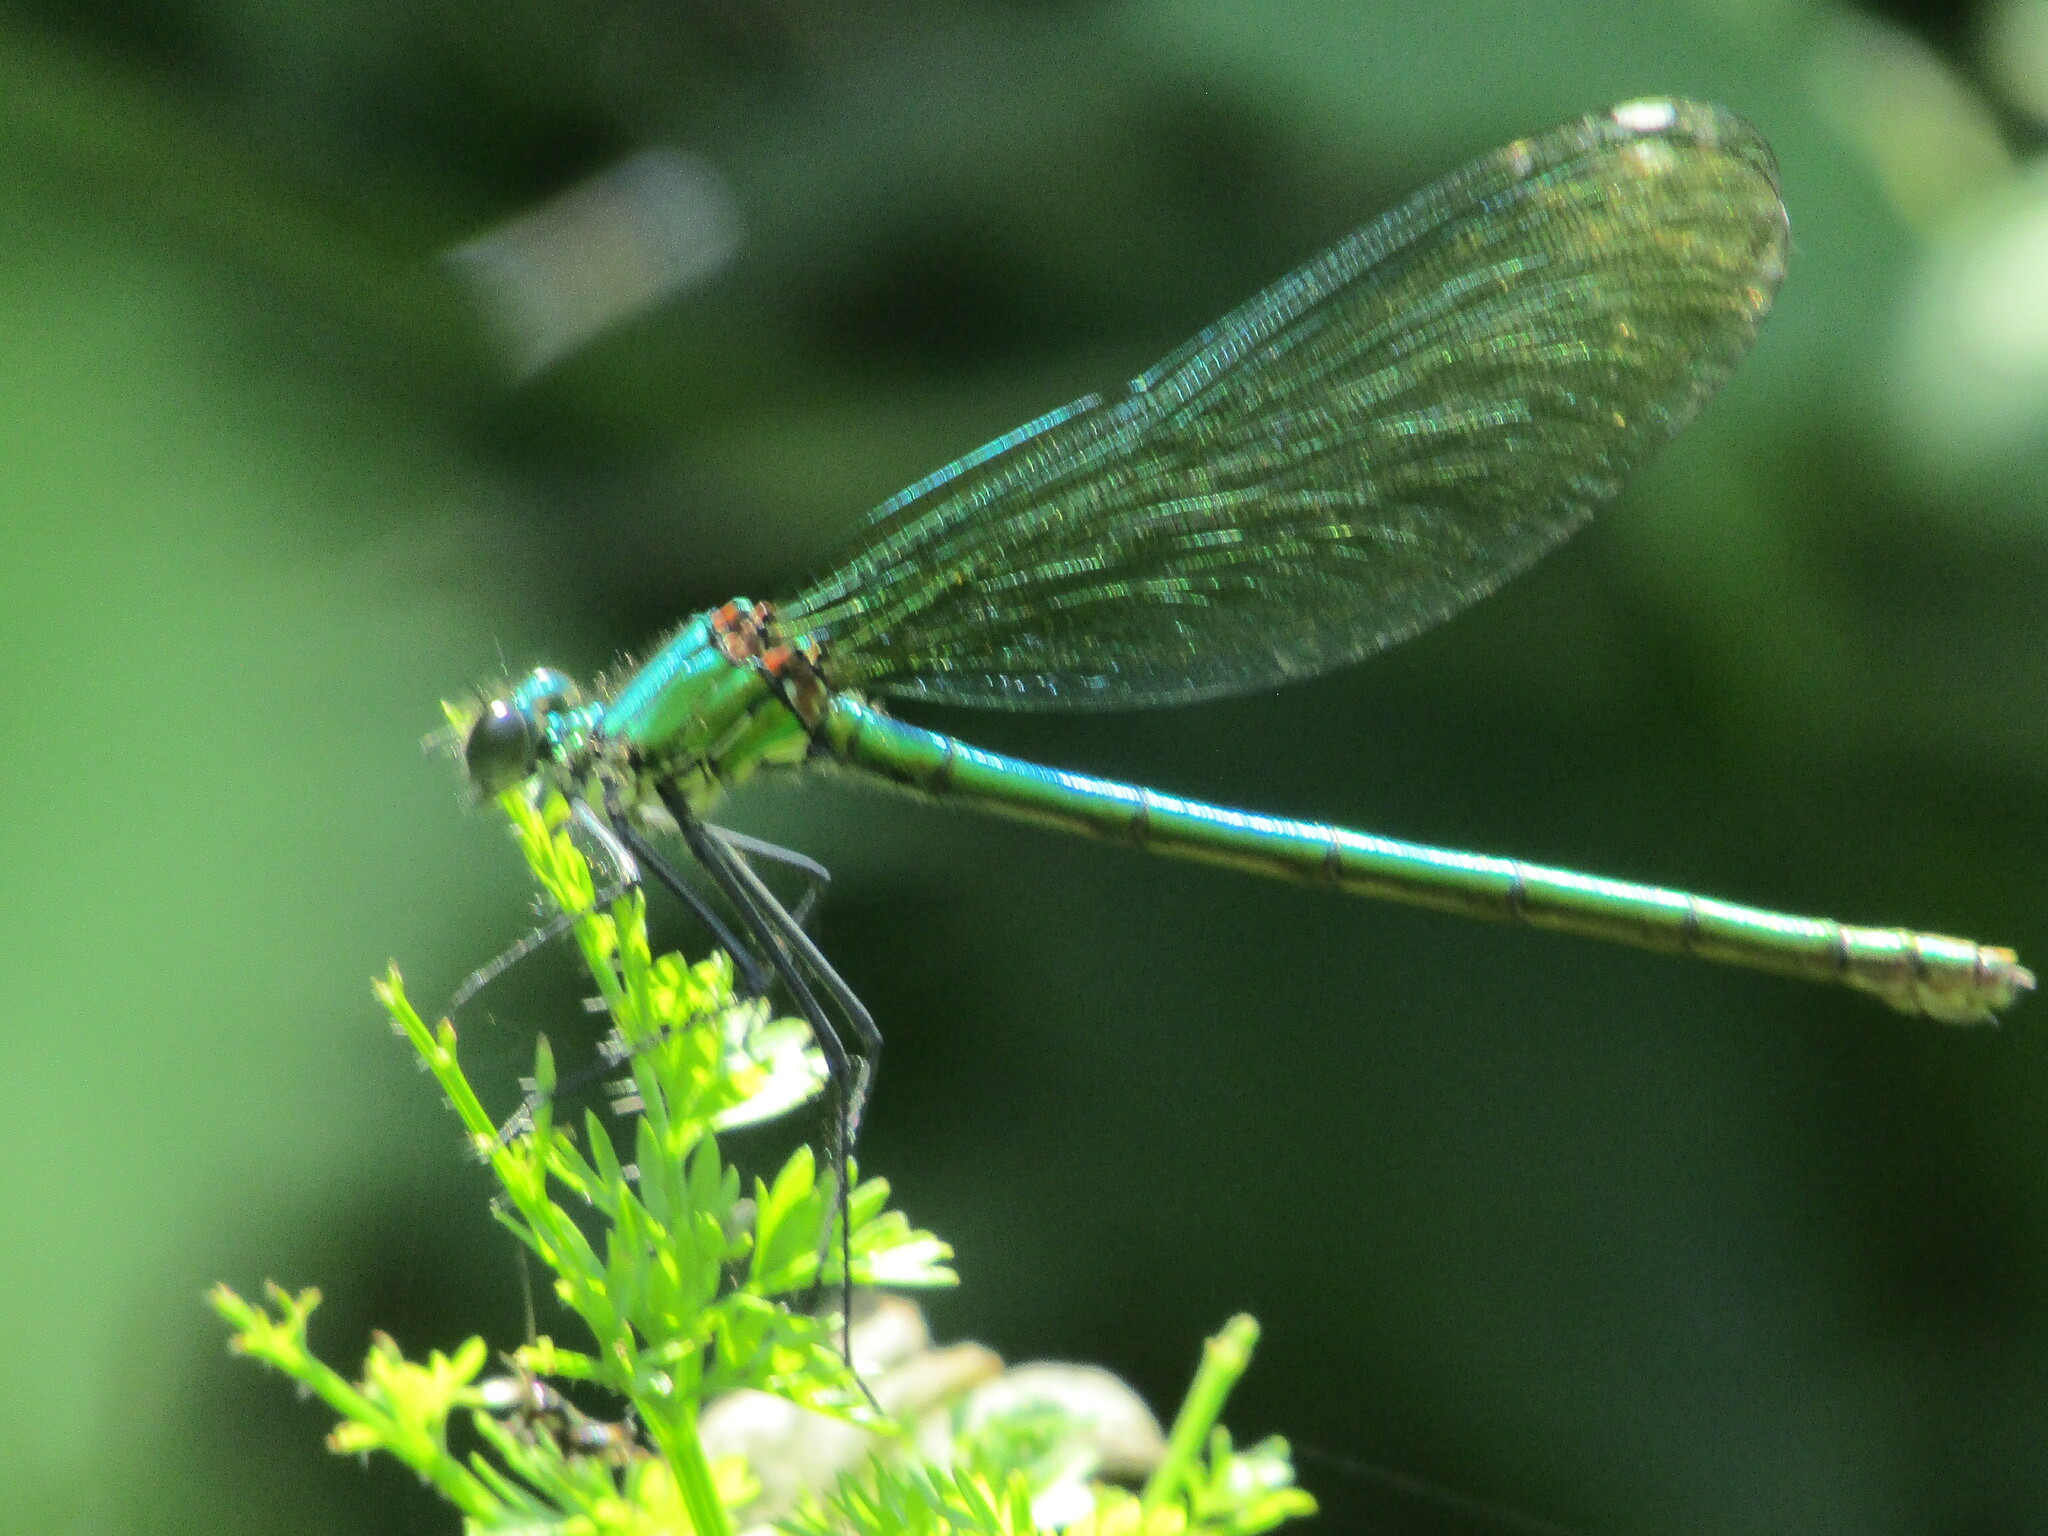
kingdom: Animalia
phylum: Arthropoda
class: Insecta
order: Odonata
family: Calopterygidae
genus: Calopteryx
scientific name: Calopteryx splendens
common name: Banded demoiselle
